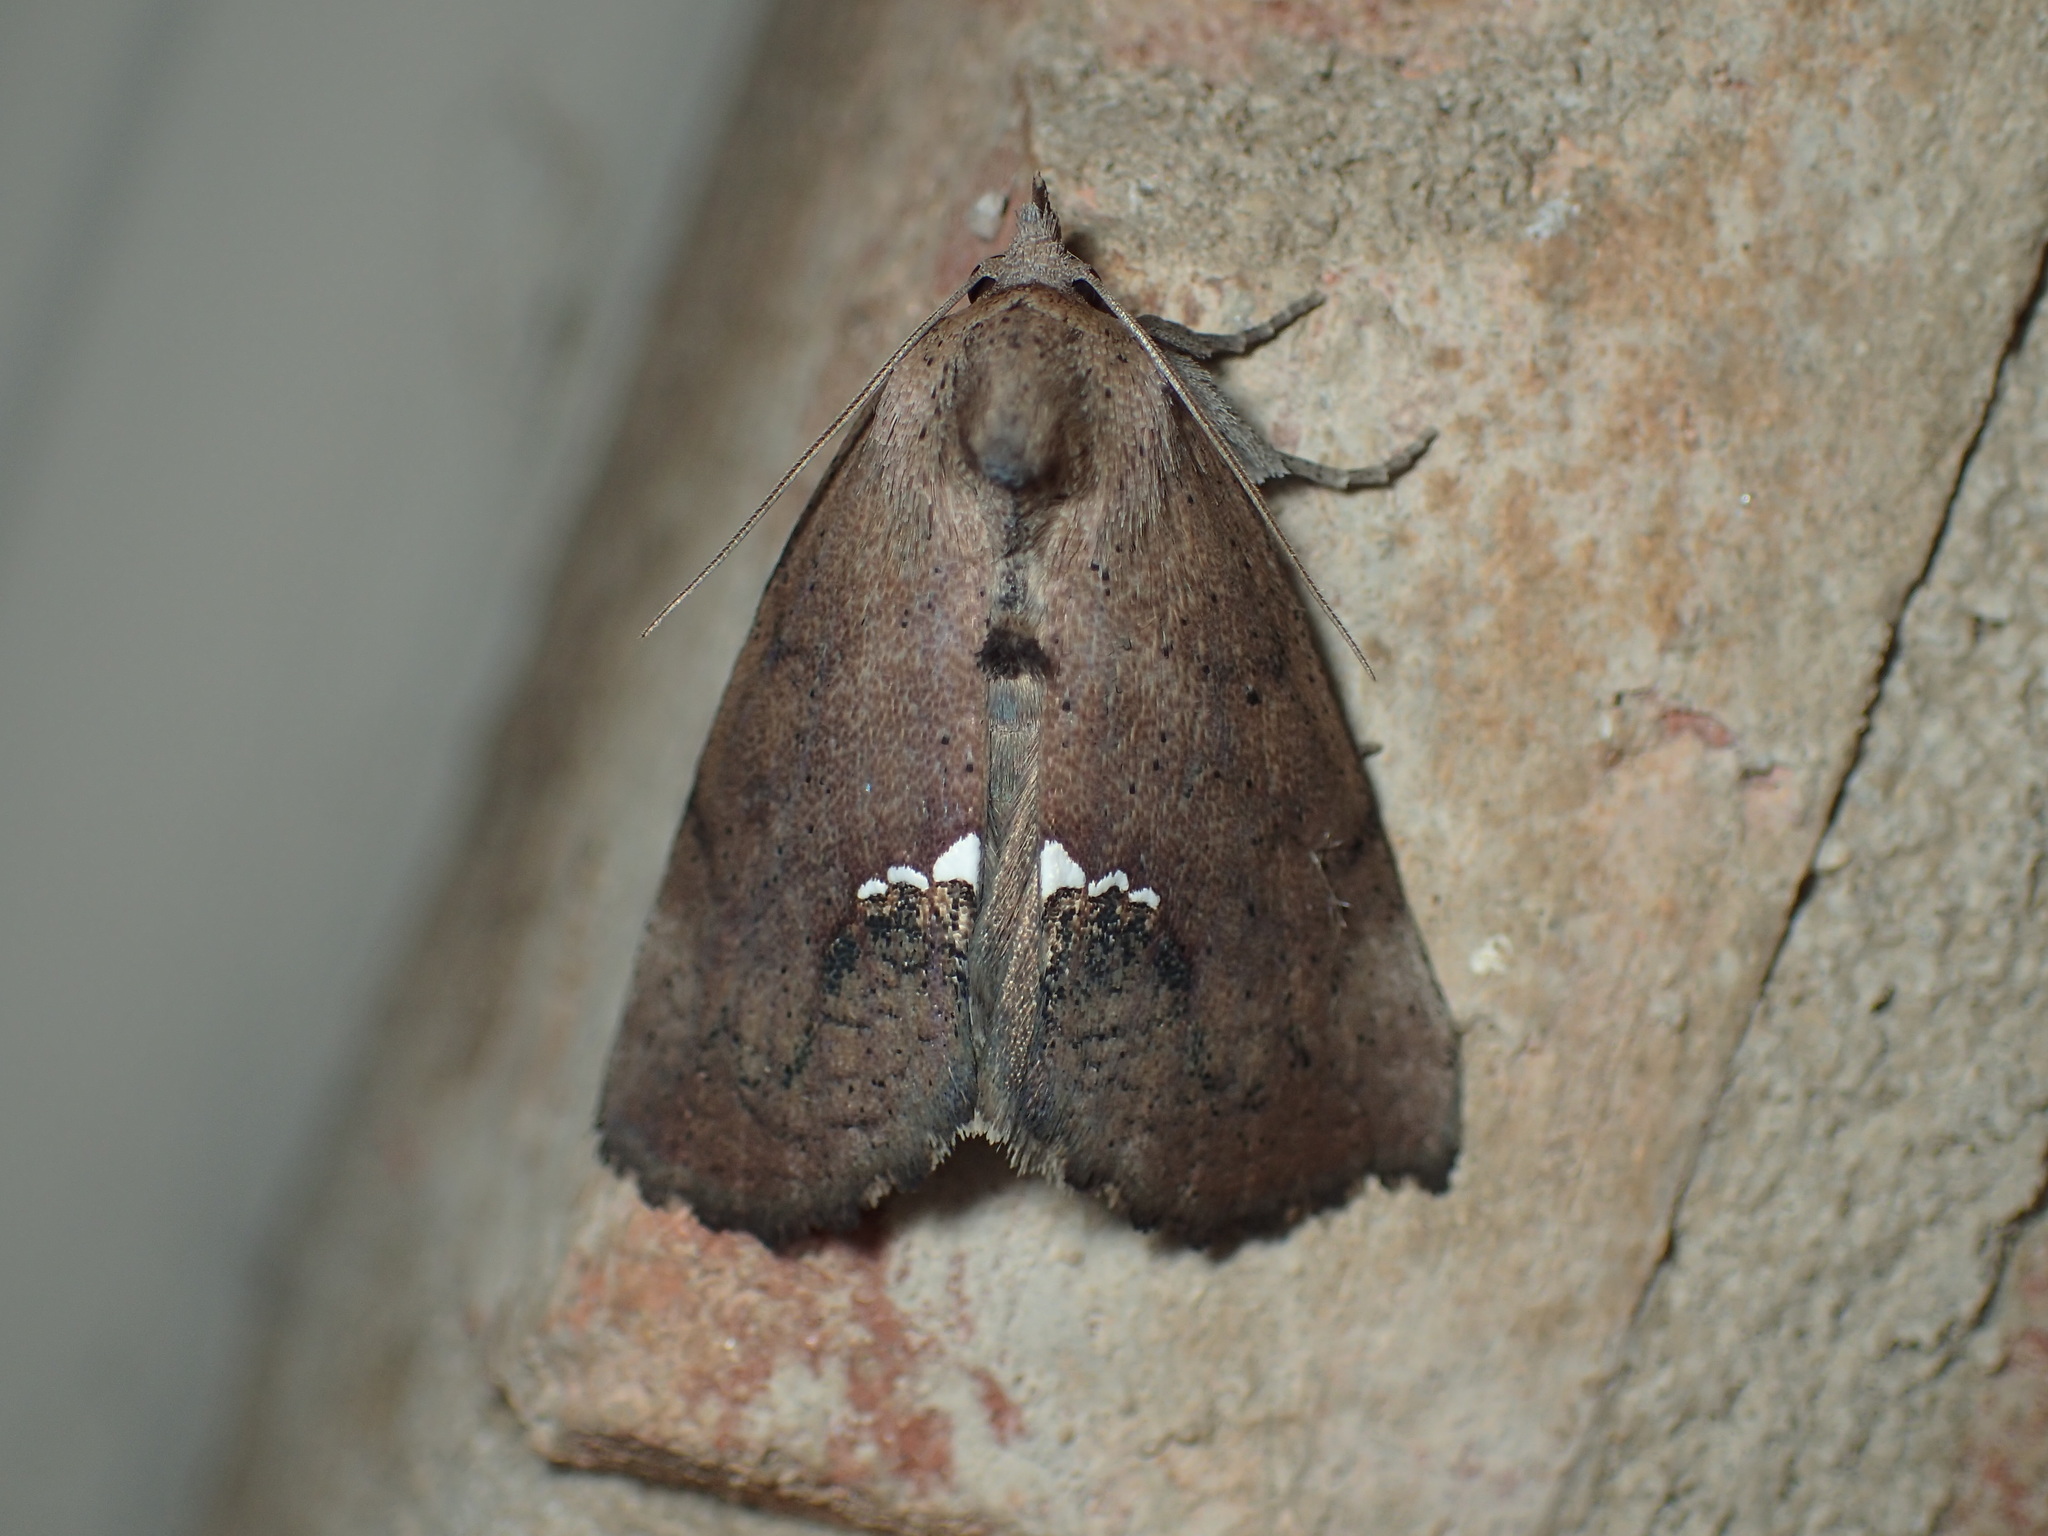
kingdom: Animalia
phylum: Arthropoda
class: Insecta
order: Lepidoptera
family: Erebidae
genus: Hypsoropha
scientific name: Hypsoropha hormos
